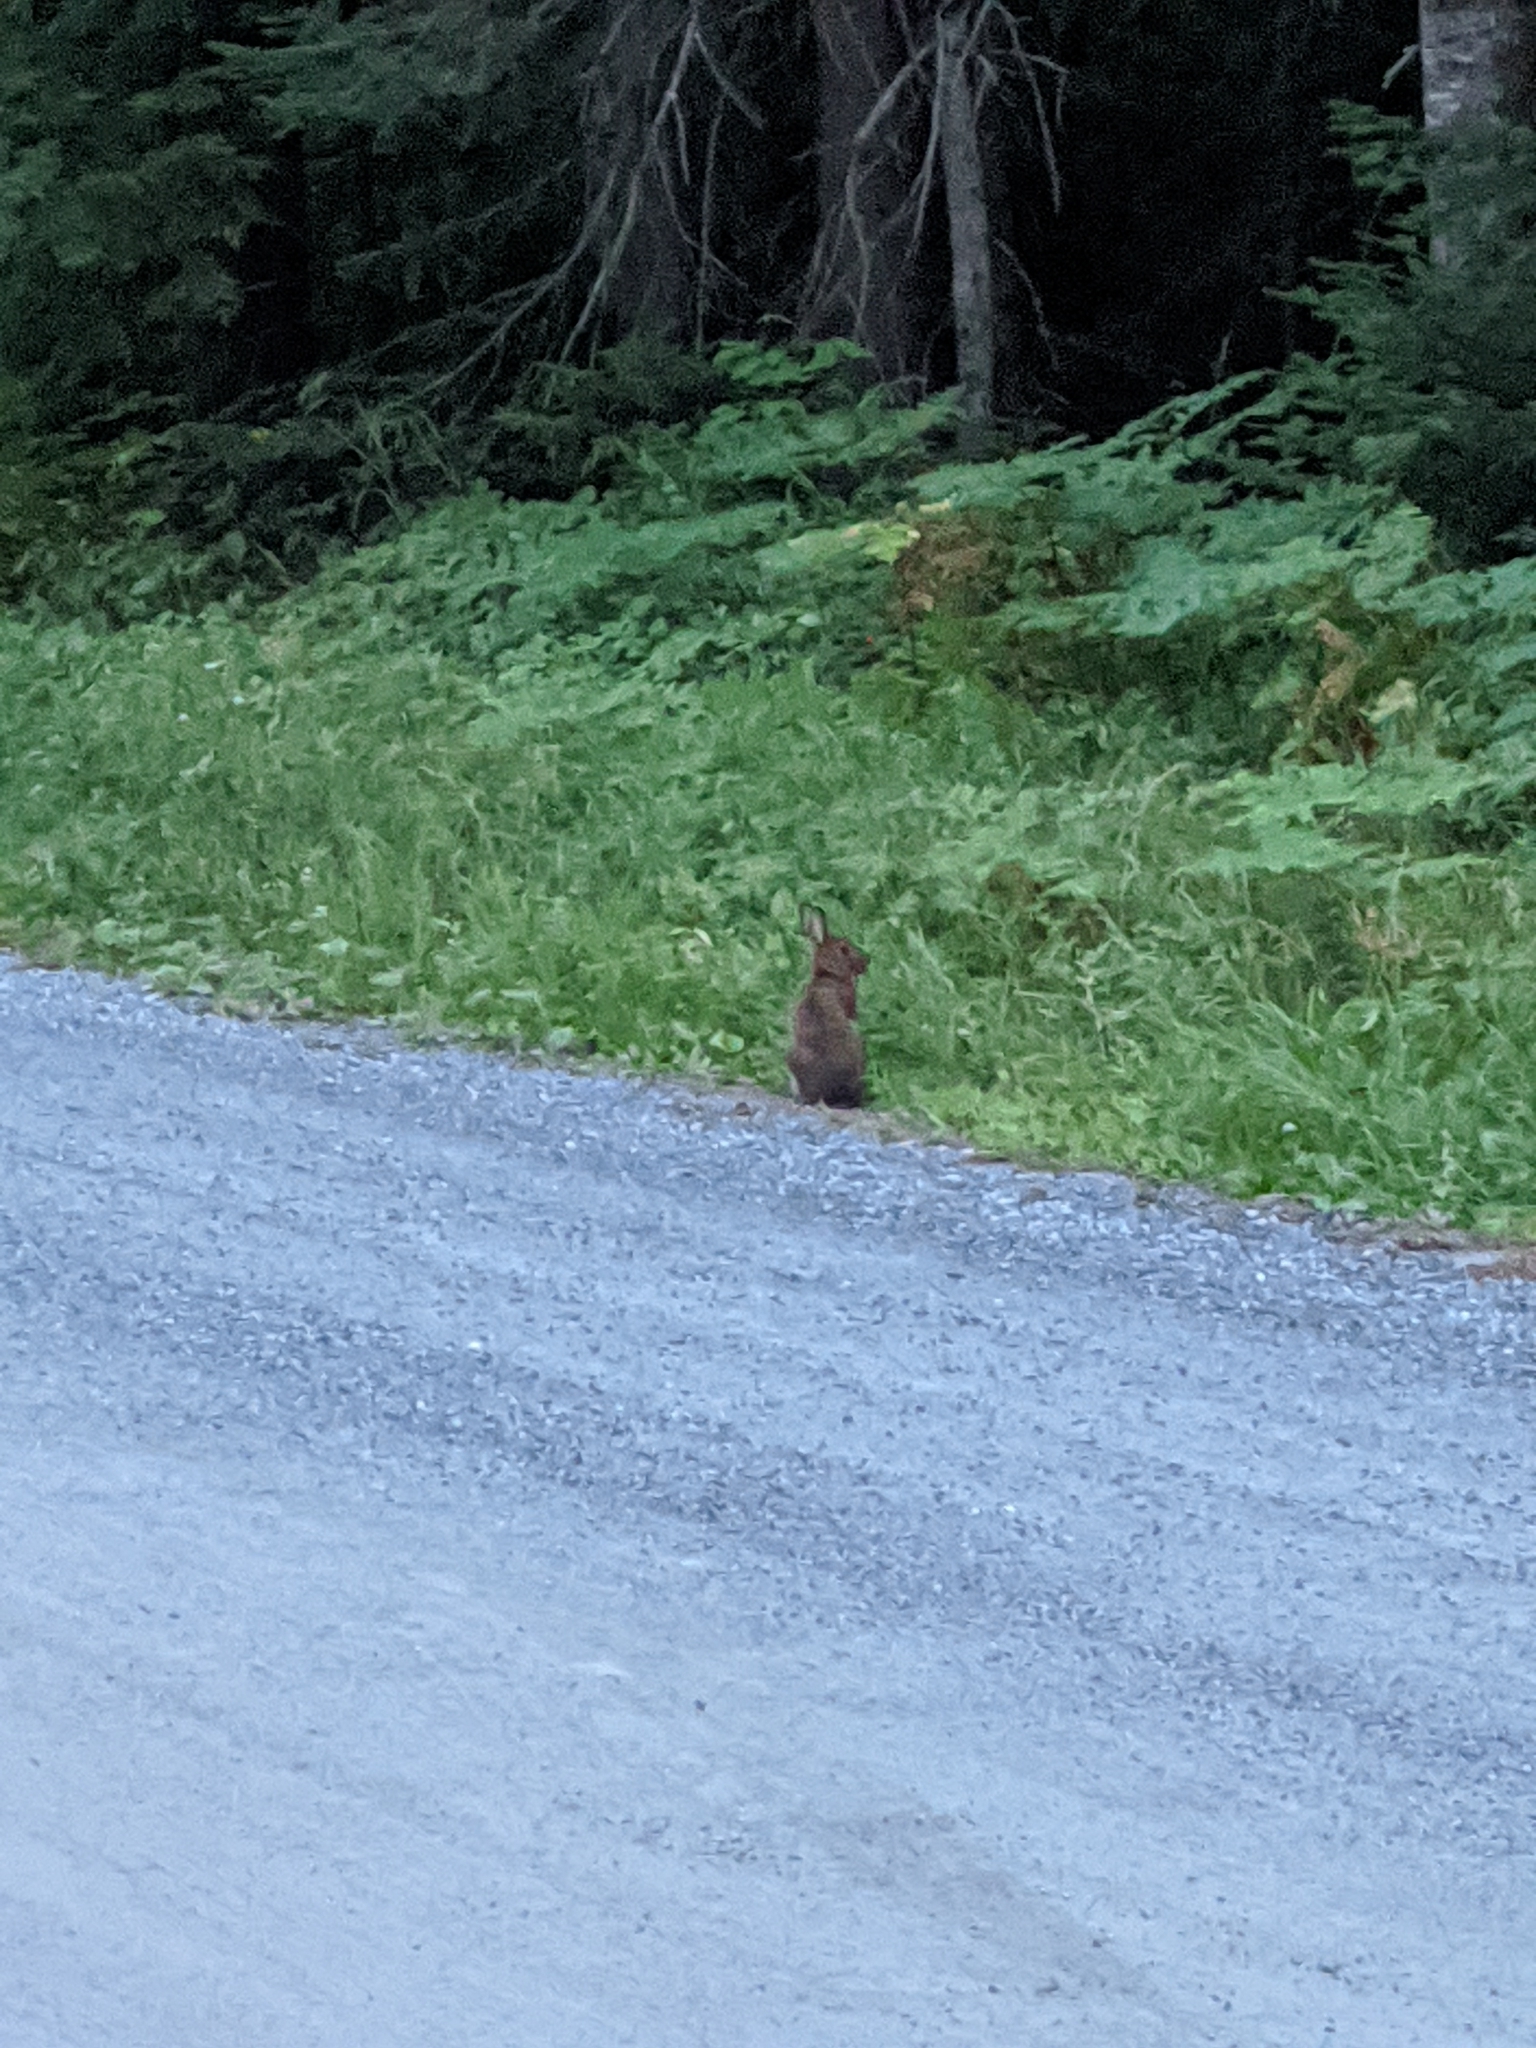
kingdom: Animalia
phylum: Chordata
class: Mammalia
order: Lagomorpha
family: Leporidae
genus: Lepus
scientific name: Lepus americanus
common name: Snowshoe hare
